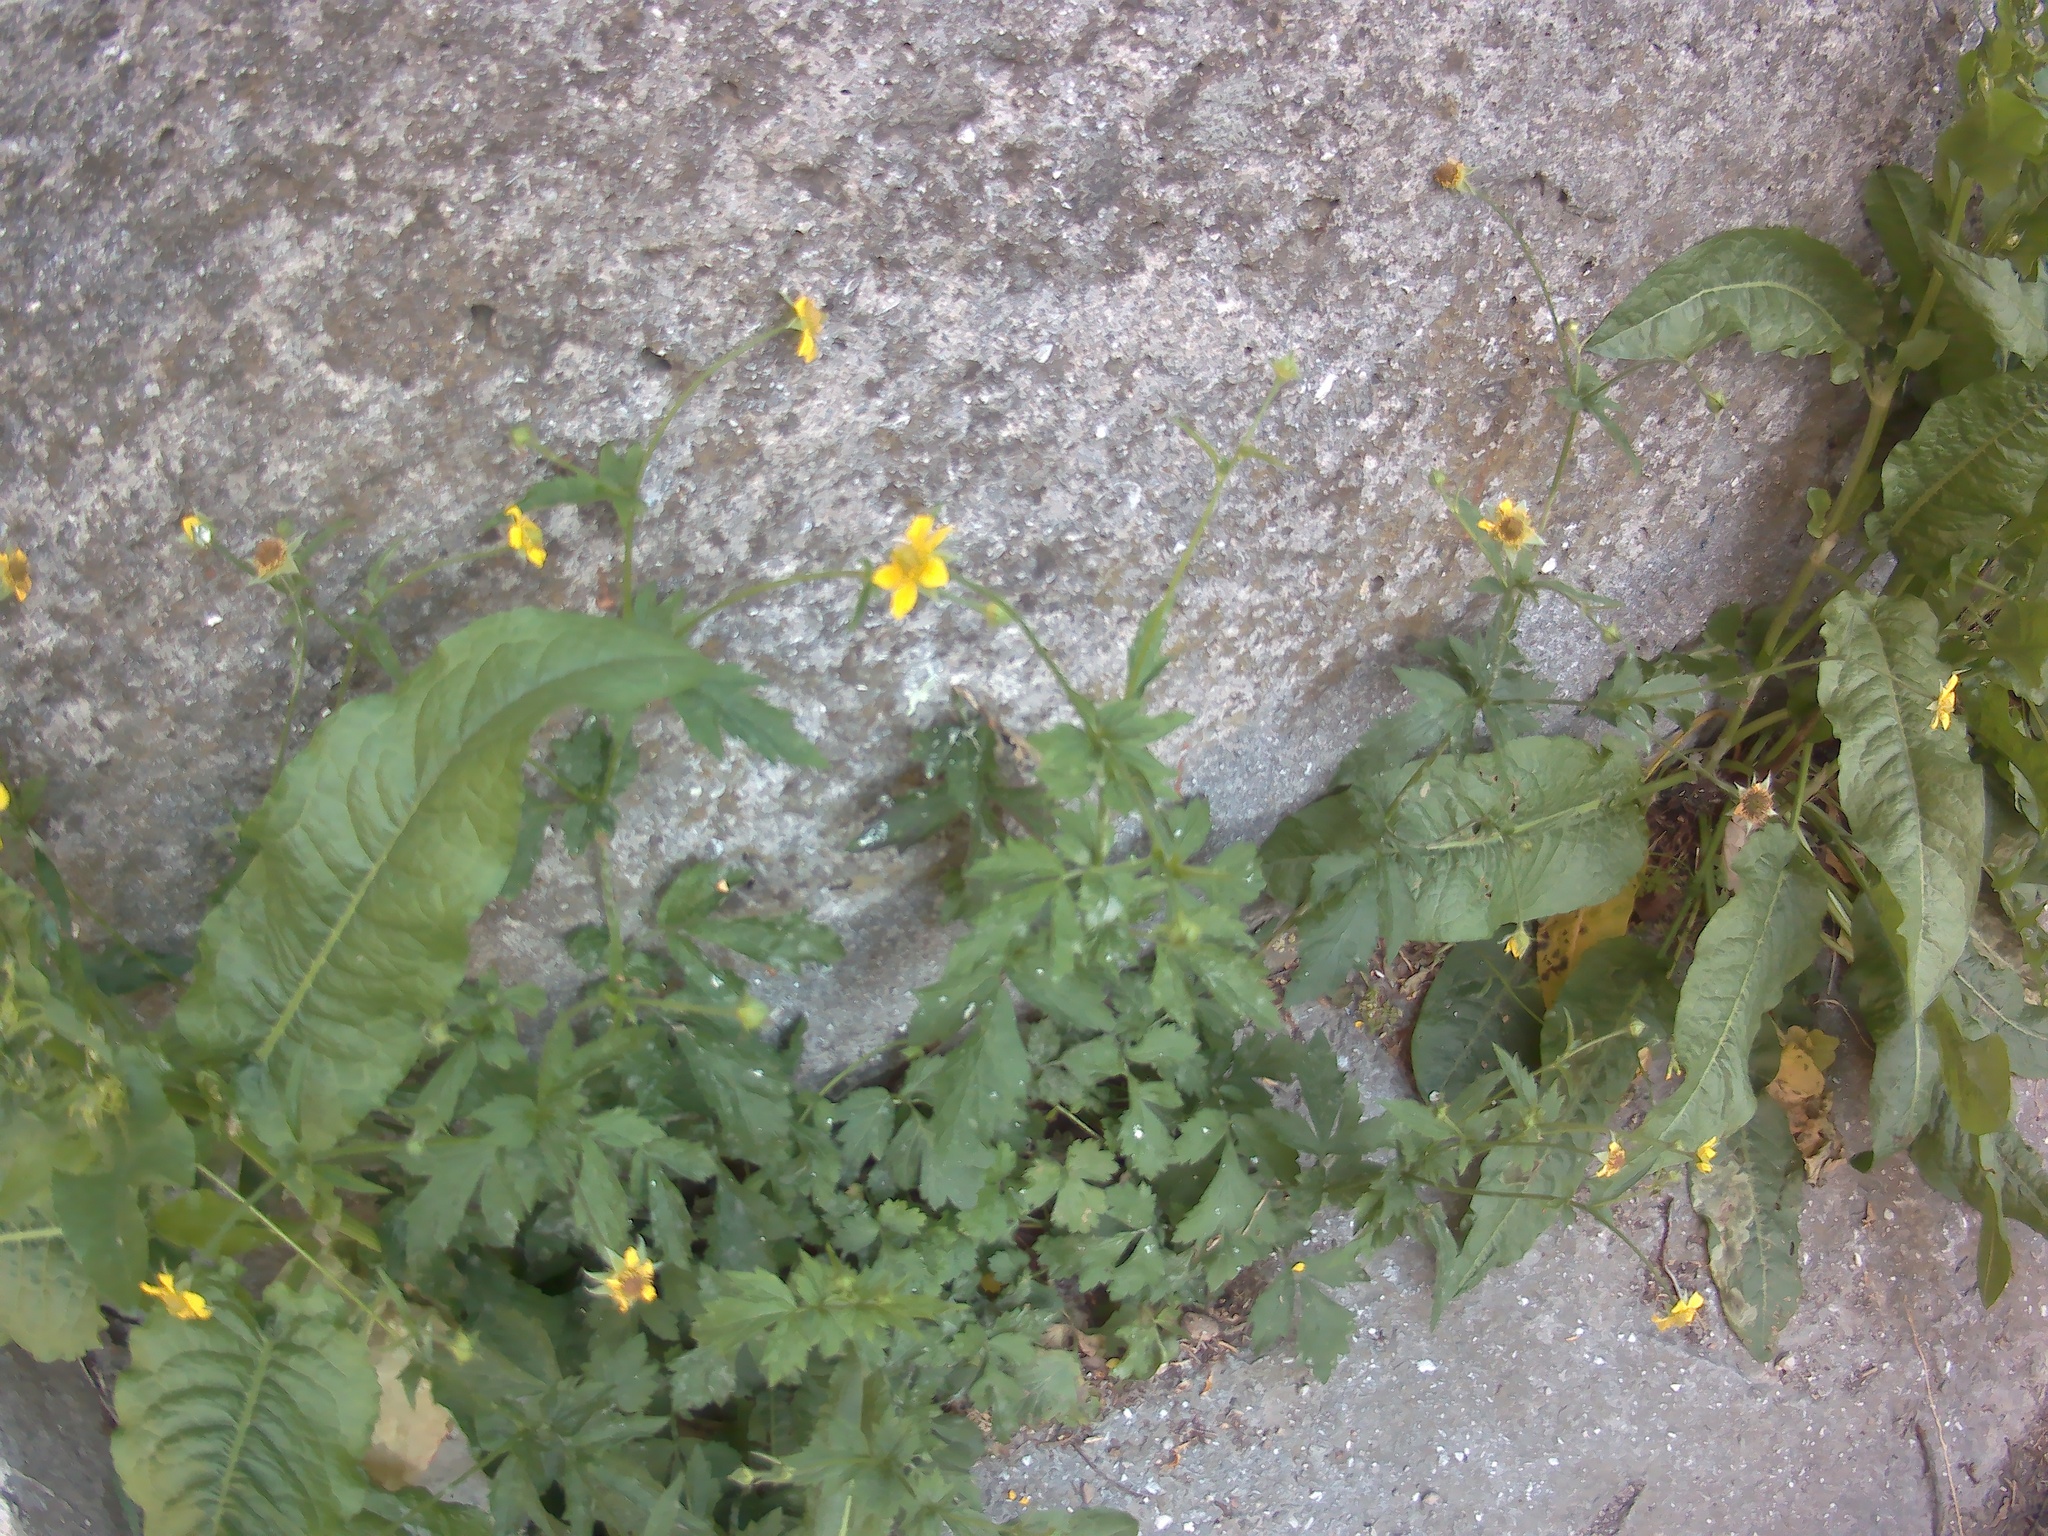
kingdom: Plantae
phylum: Tracheophyta
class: Magnoliopsida
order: Rosales
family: Rosaceae
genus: Geum
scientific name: Geum urbanum
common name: Wood avens
